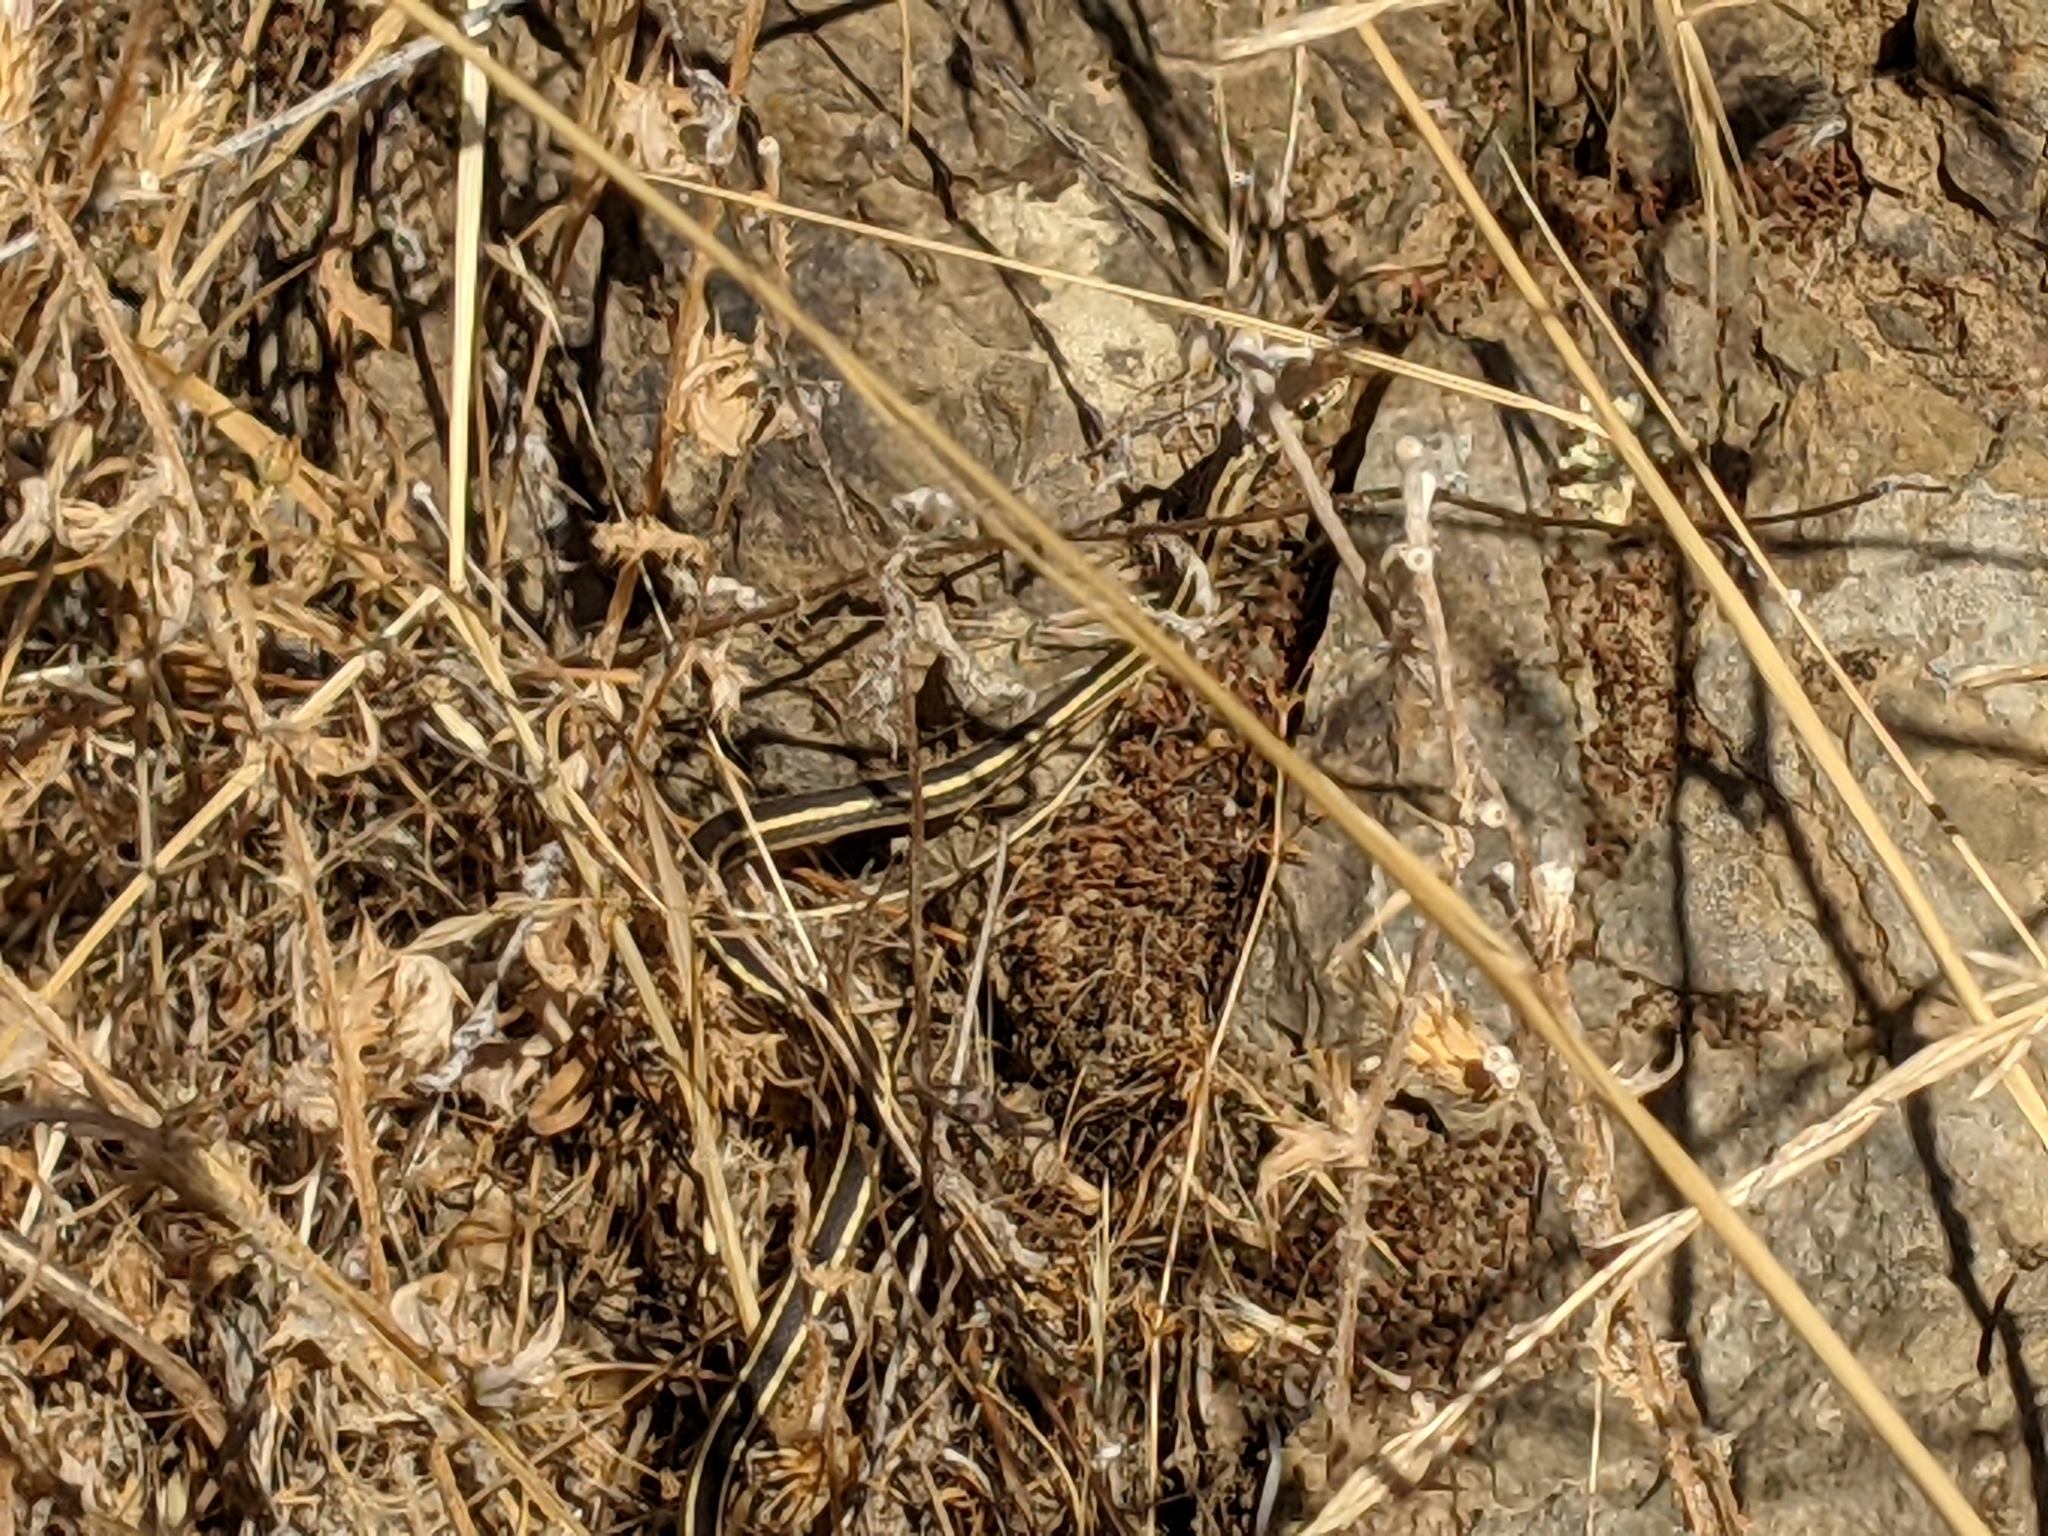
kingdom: Animalia
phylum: Chordata
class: Squamata
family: Colubridae
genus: Masticophis
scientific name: Masticophis lateralis
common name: Striped racer
